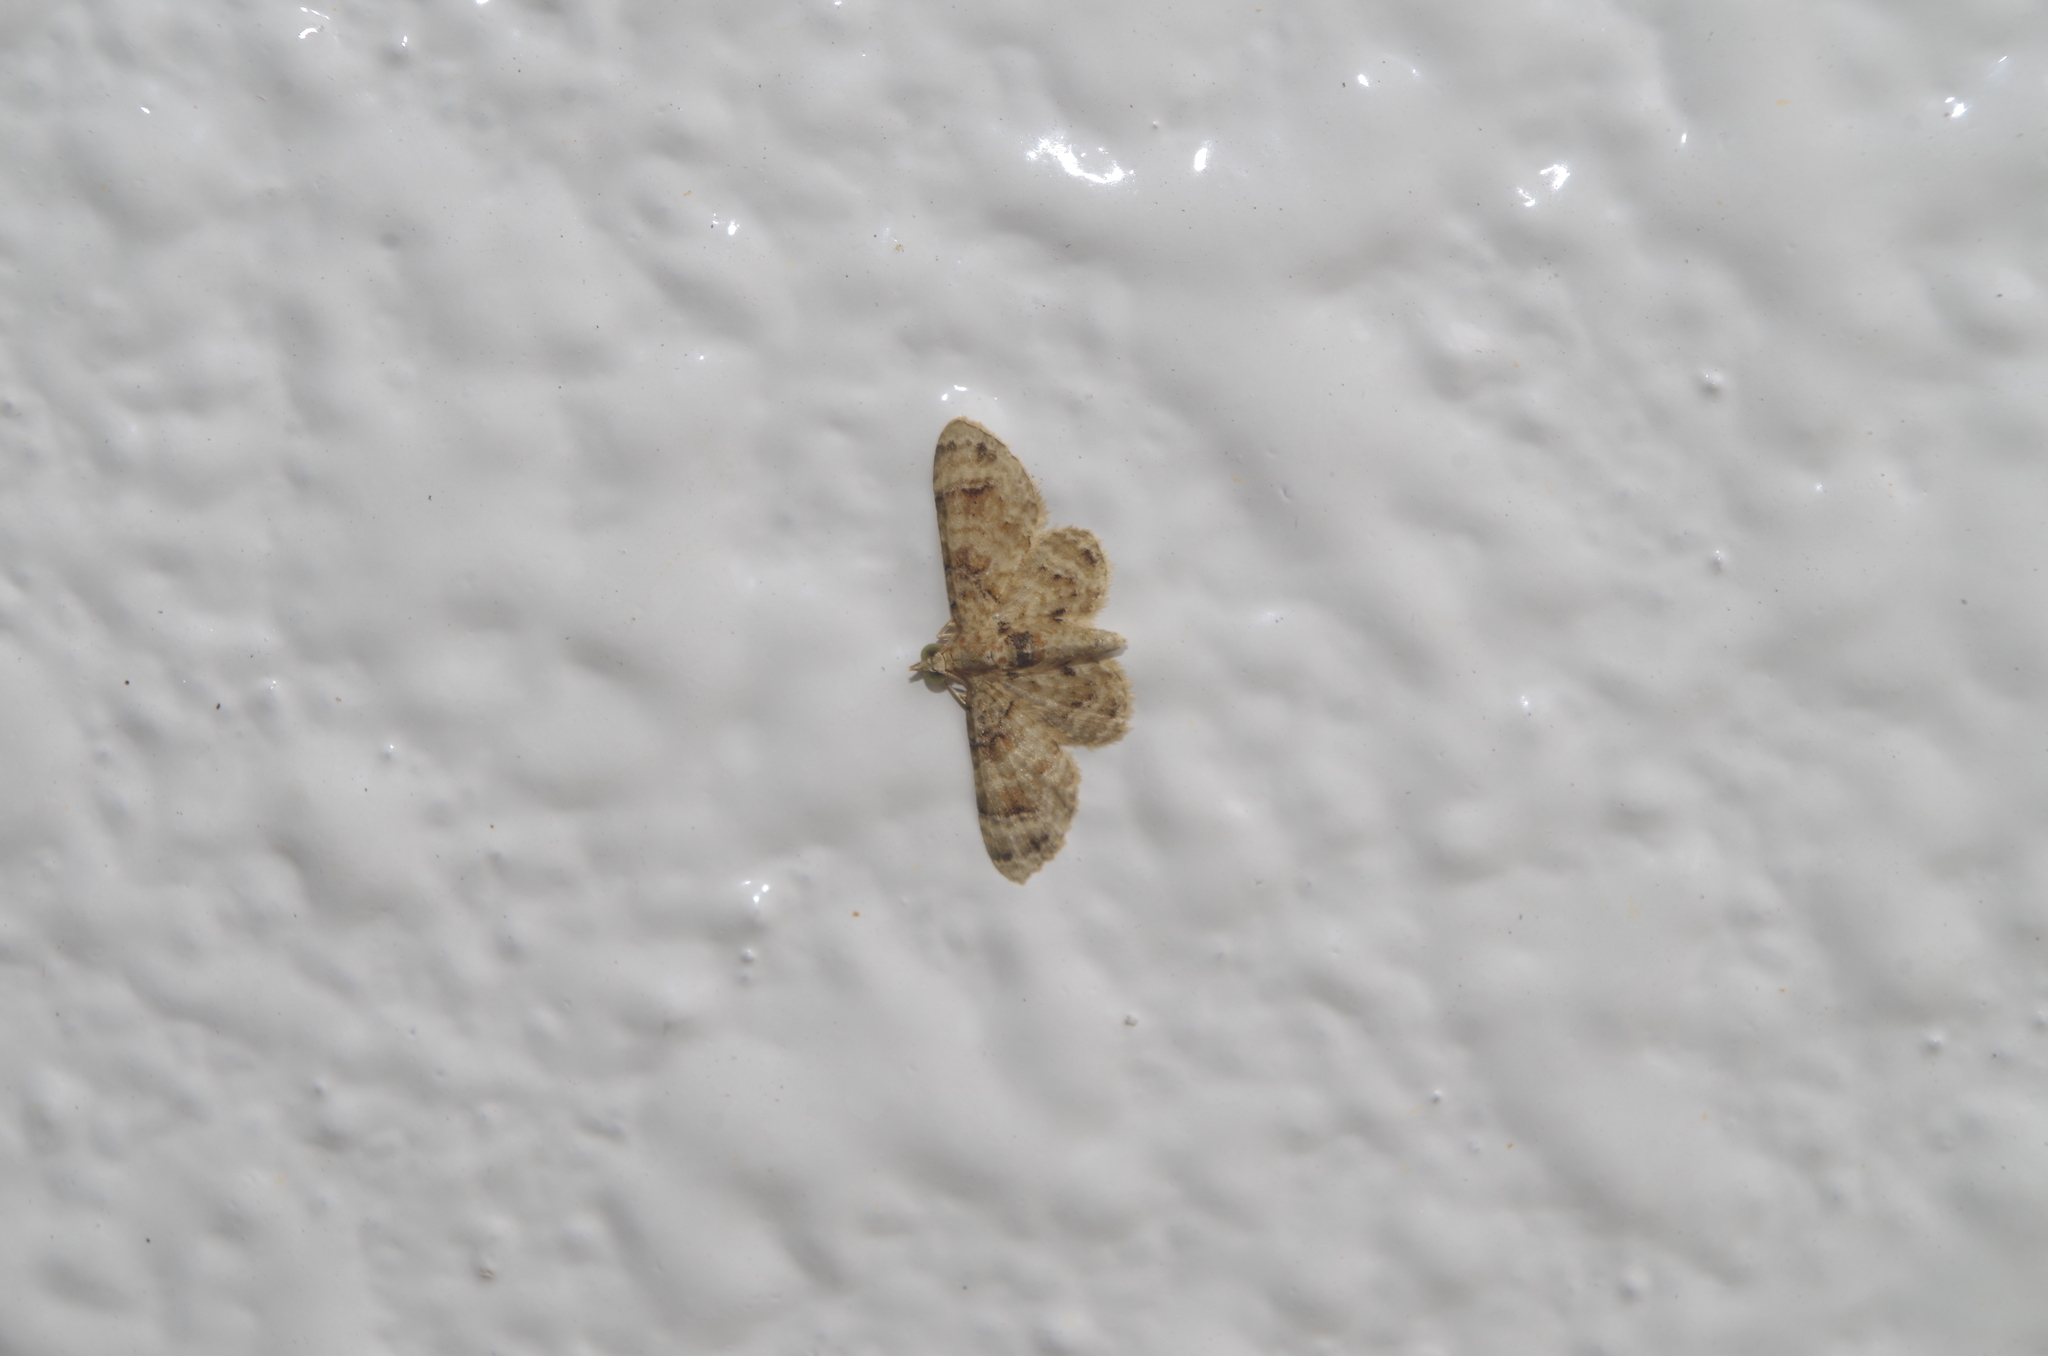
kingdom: Animalia
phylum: Arthropoda
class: Insecta
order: Lepidoptera
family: Geometridae
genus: Gymnoscelis
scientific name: Gymnoscelis admixtaria
